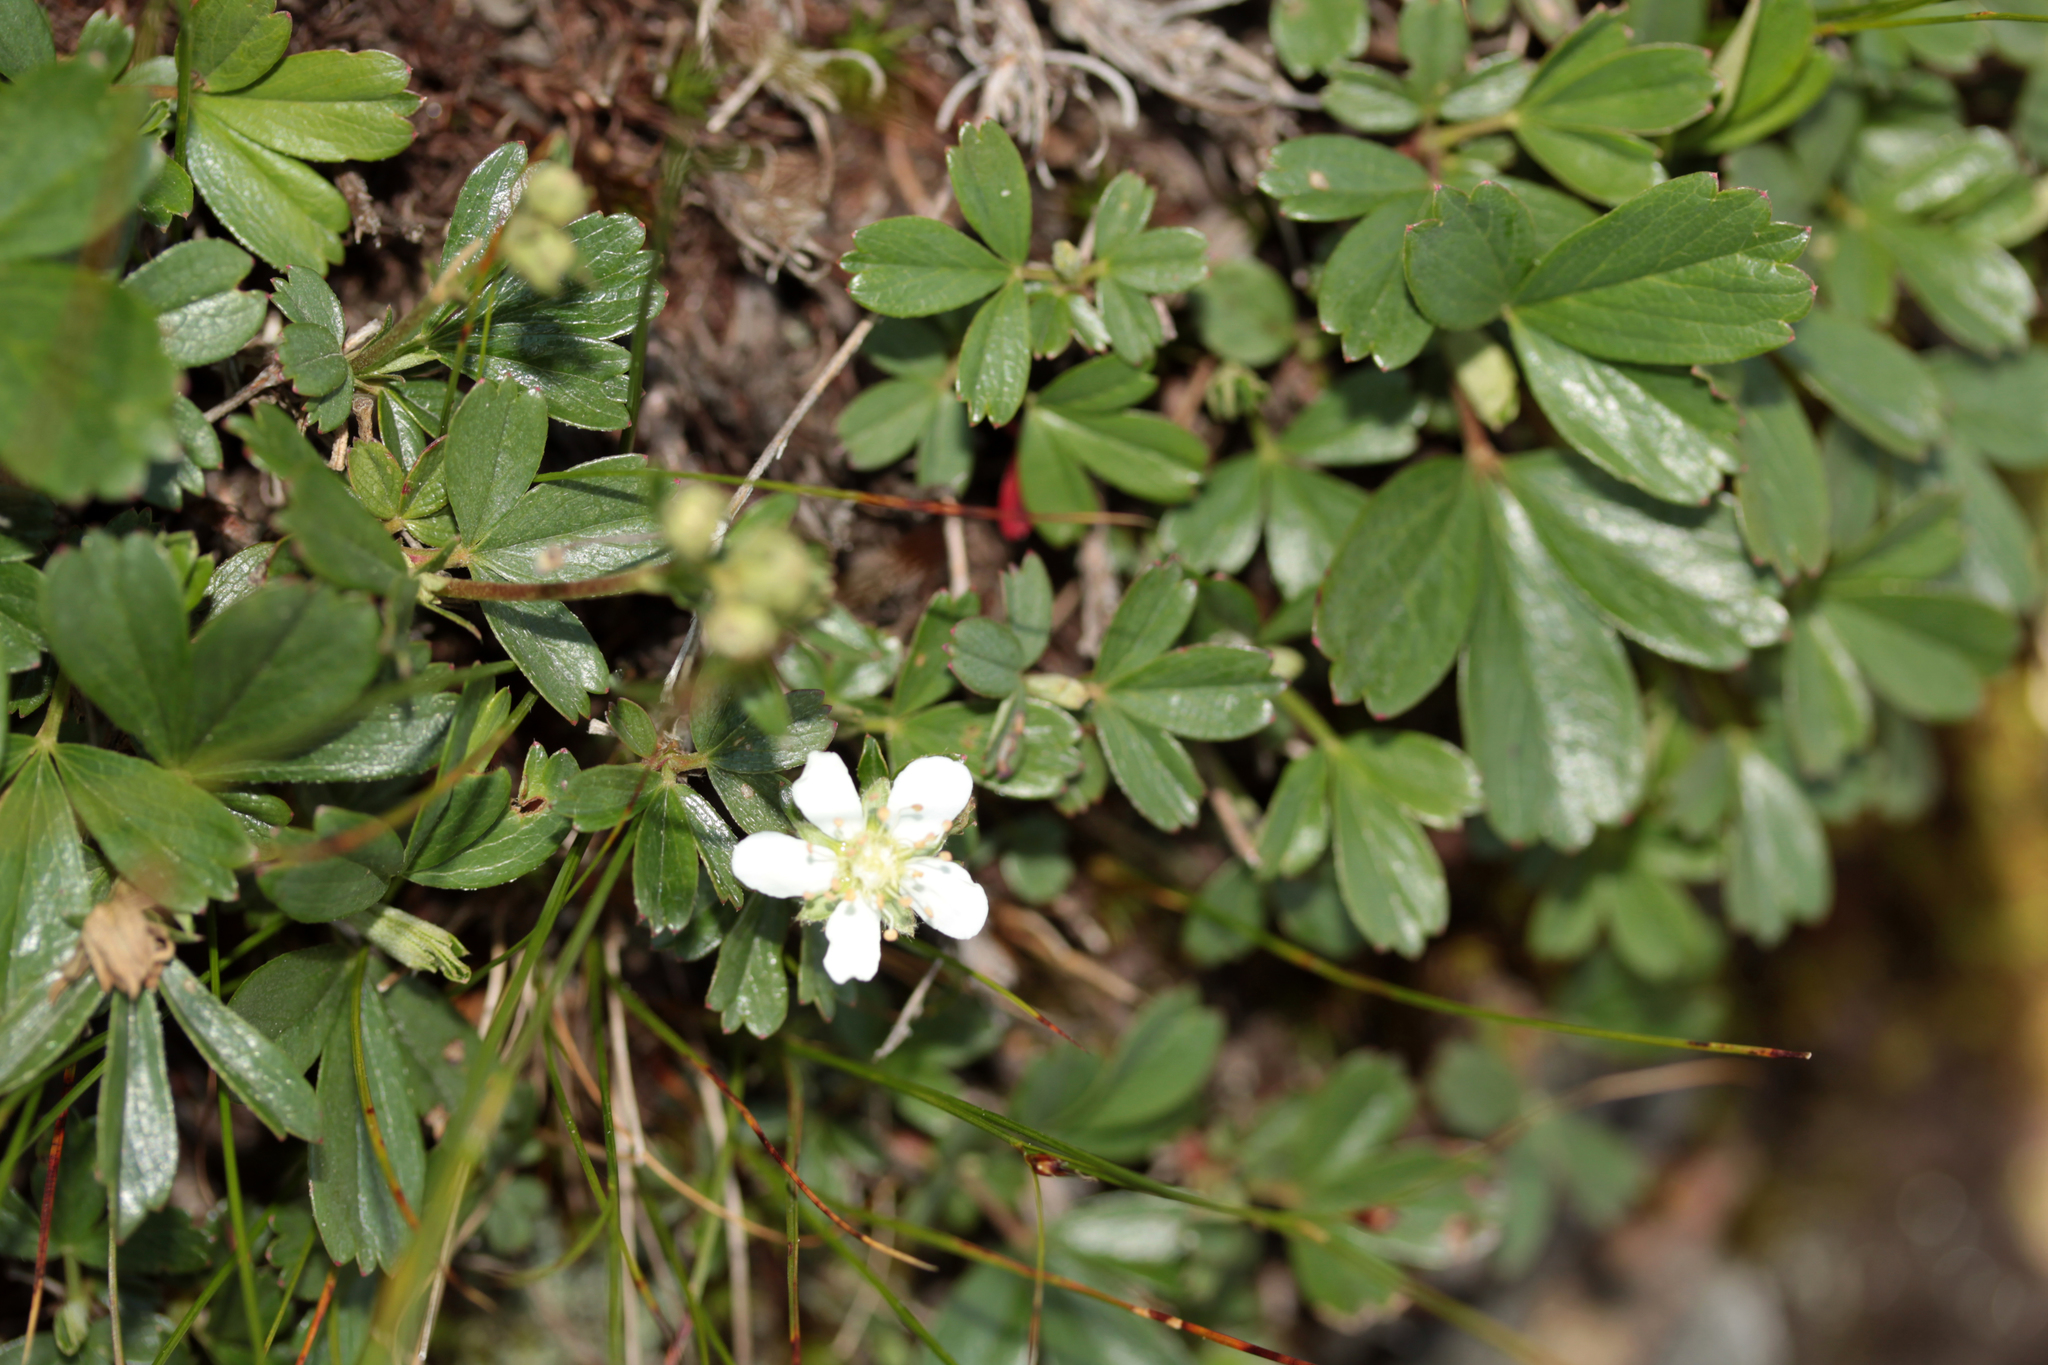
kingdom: Plantae
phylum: Tracheophyta
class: Magnoliopsida
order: Rosales
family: Rosaceae
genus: Sibbaldia
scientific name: Sibbaldia tridentata
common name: Three-toothed cinquefoil
